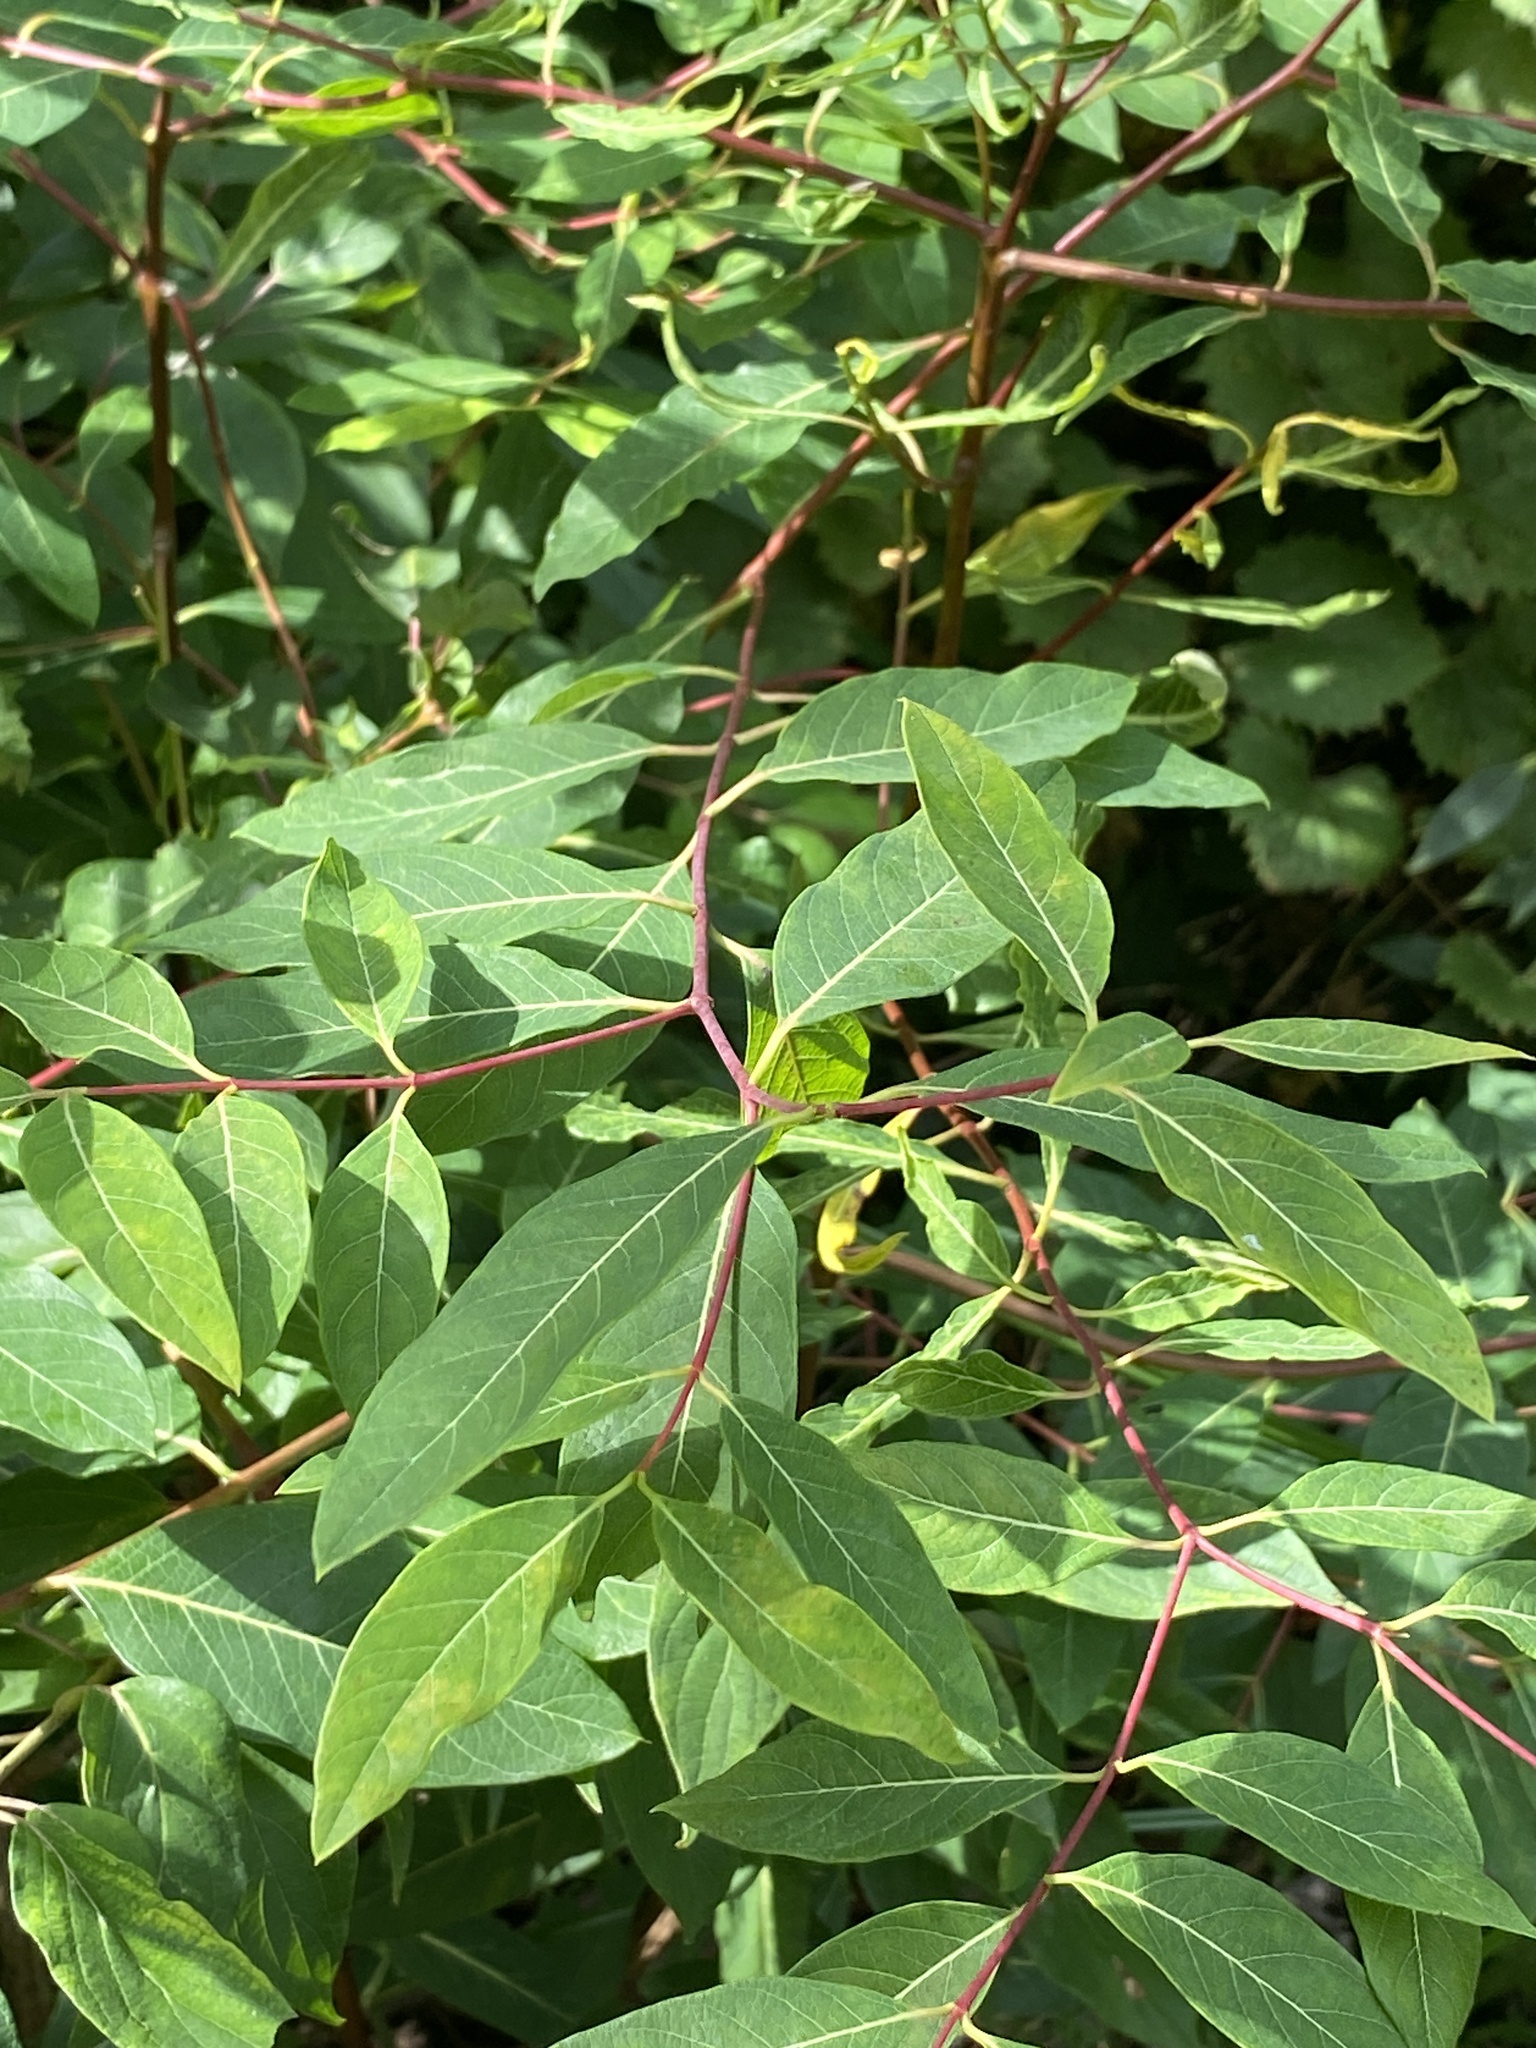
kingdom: Plantae
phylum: Tracheophyta
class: Magnoliopsida
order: Gentianales
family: Apocynaceae
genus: Apocynum
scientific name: Apocynum cannabinum
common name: Hemp dogbane
